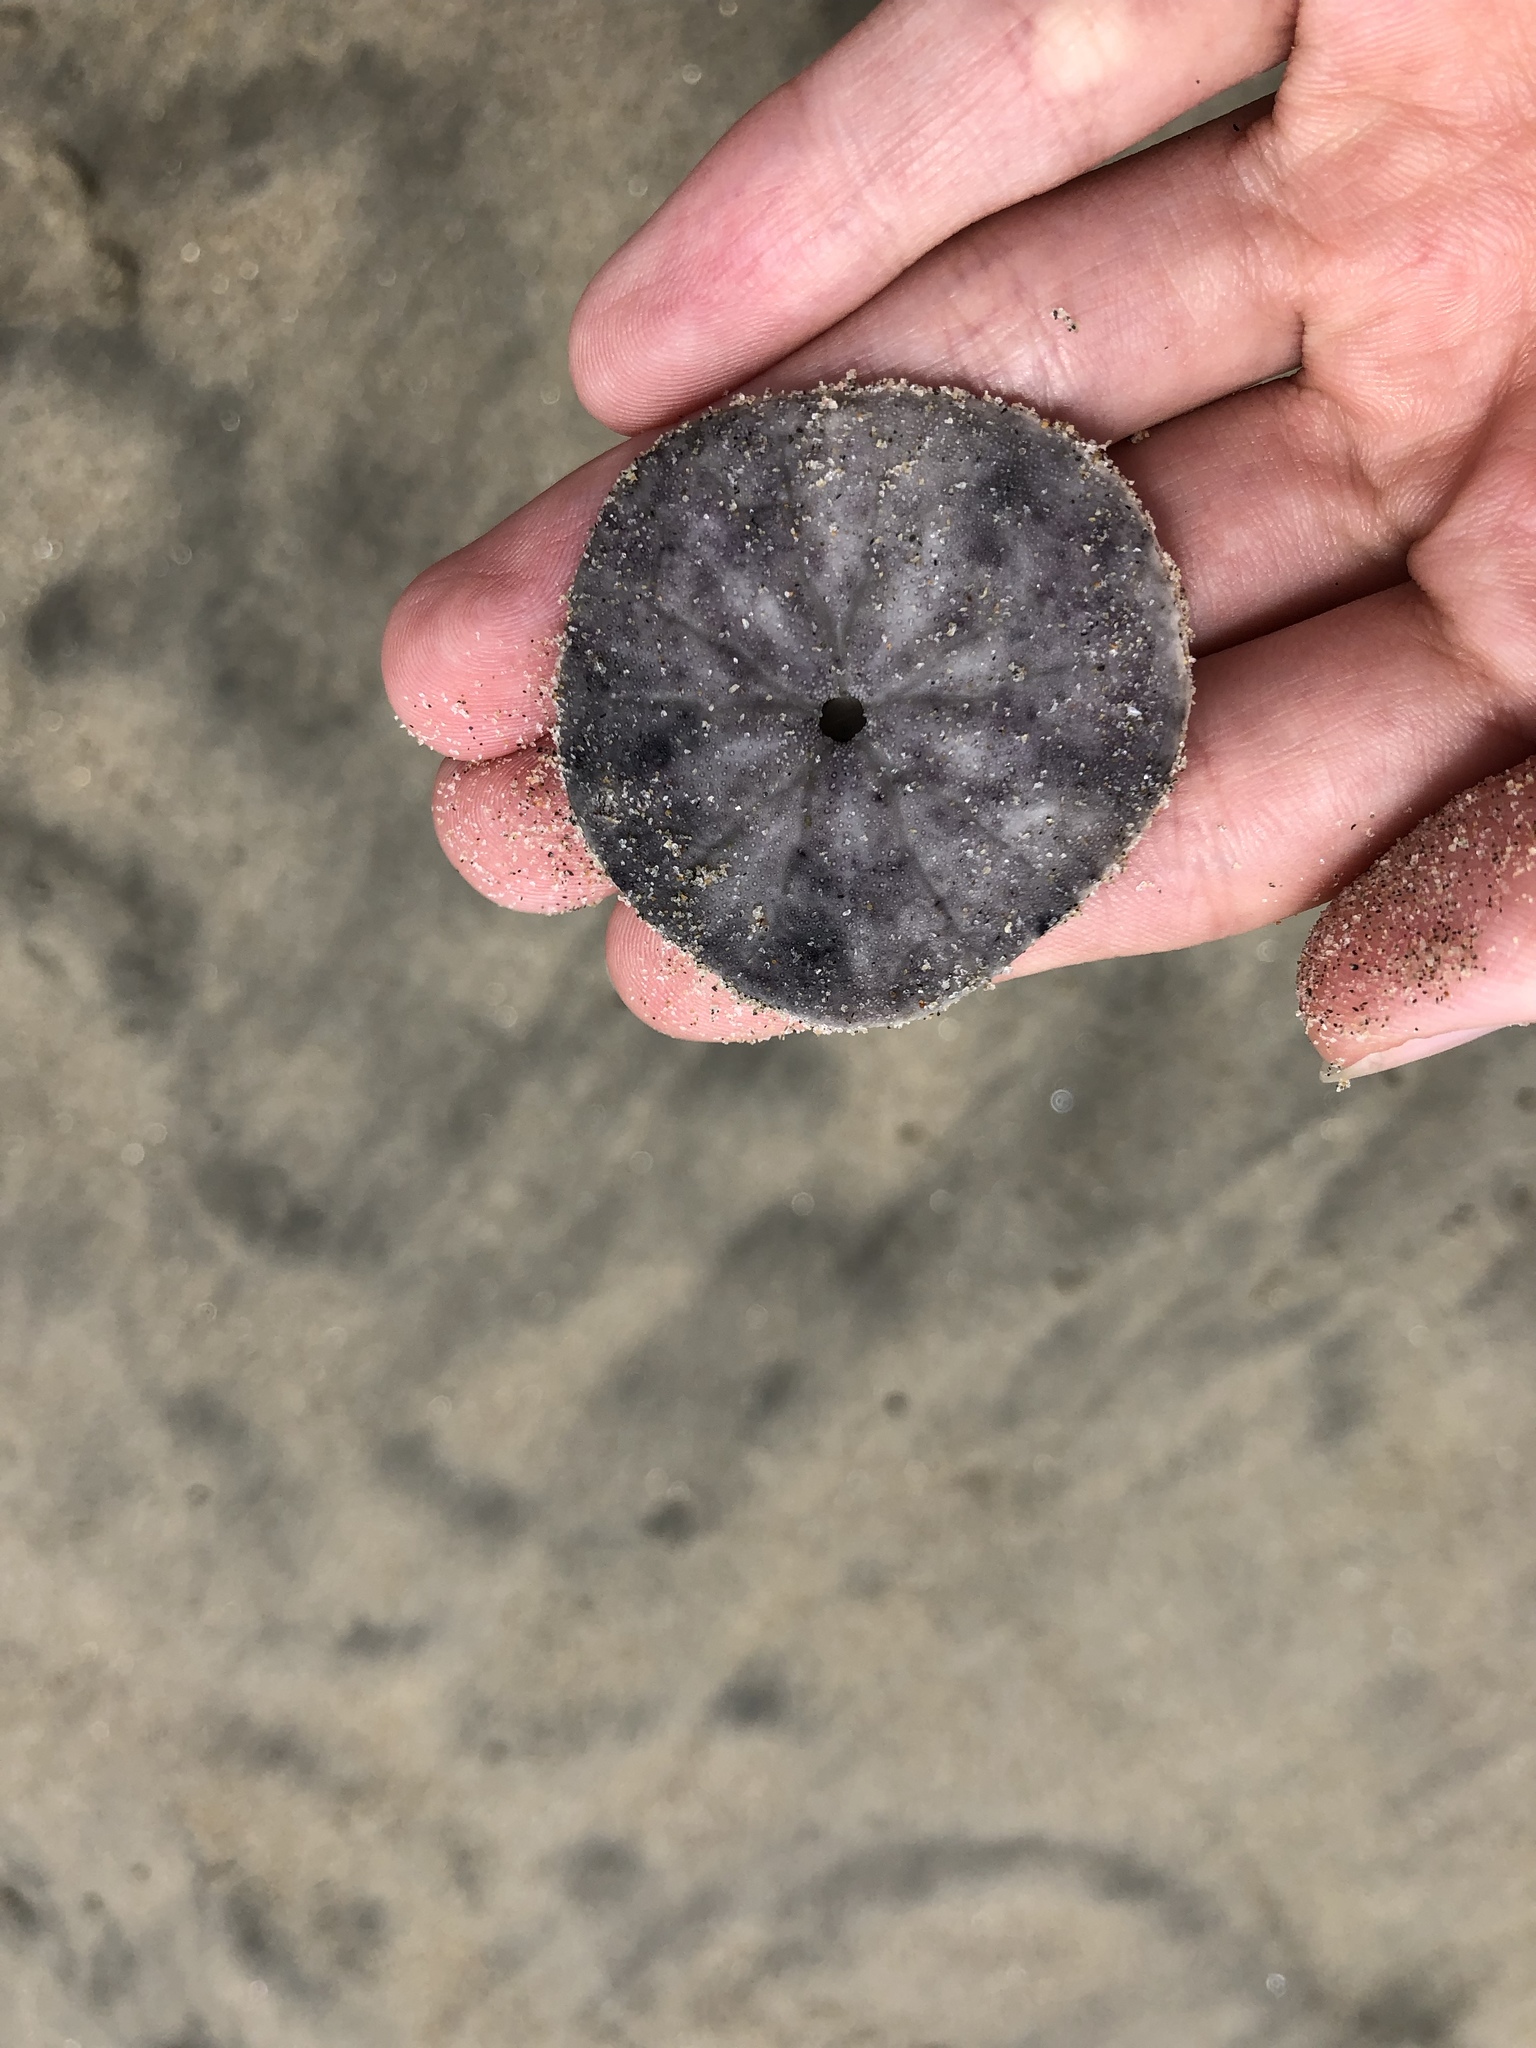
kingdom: Animalia
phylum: Echinodermata
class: Echinoidea
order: Echinolampadacea
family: Dendrasteridae
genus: Dendraster
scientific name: Dendraster excentricus
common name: Eccentric sand dollar sea urchin
